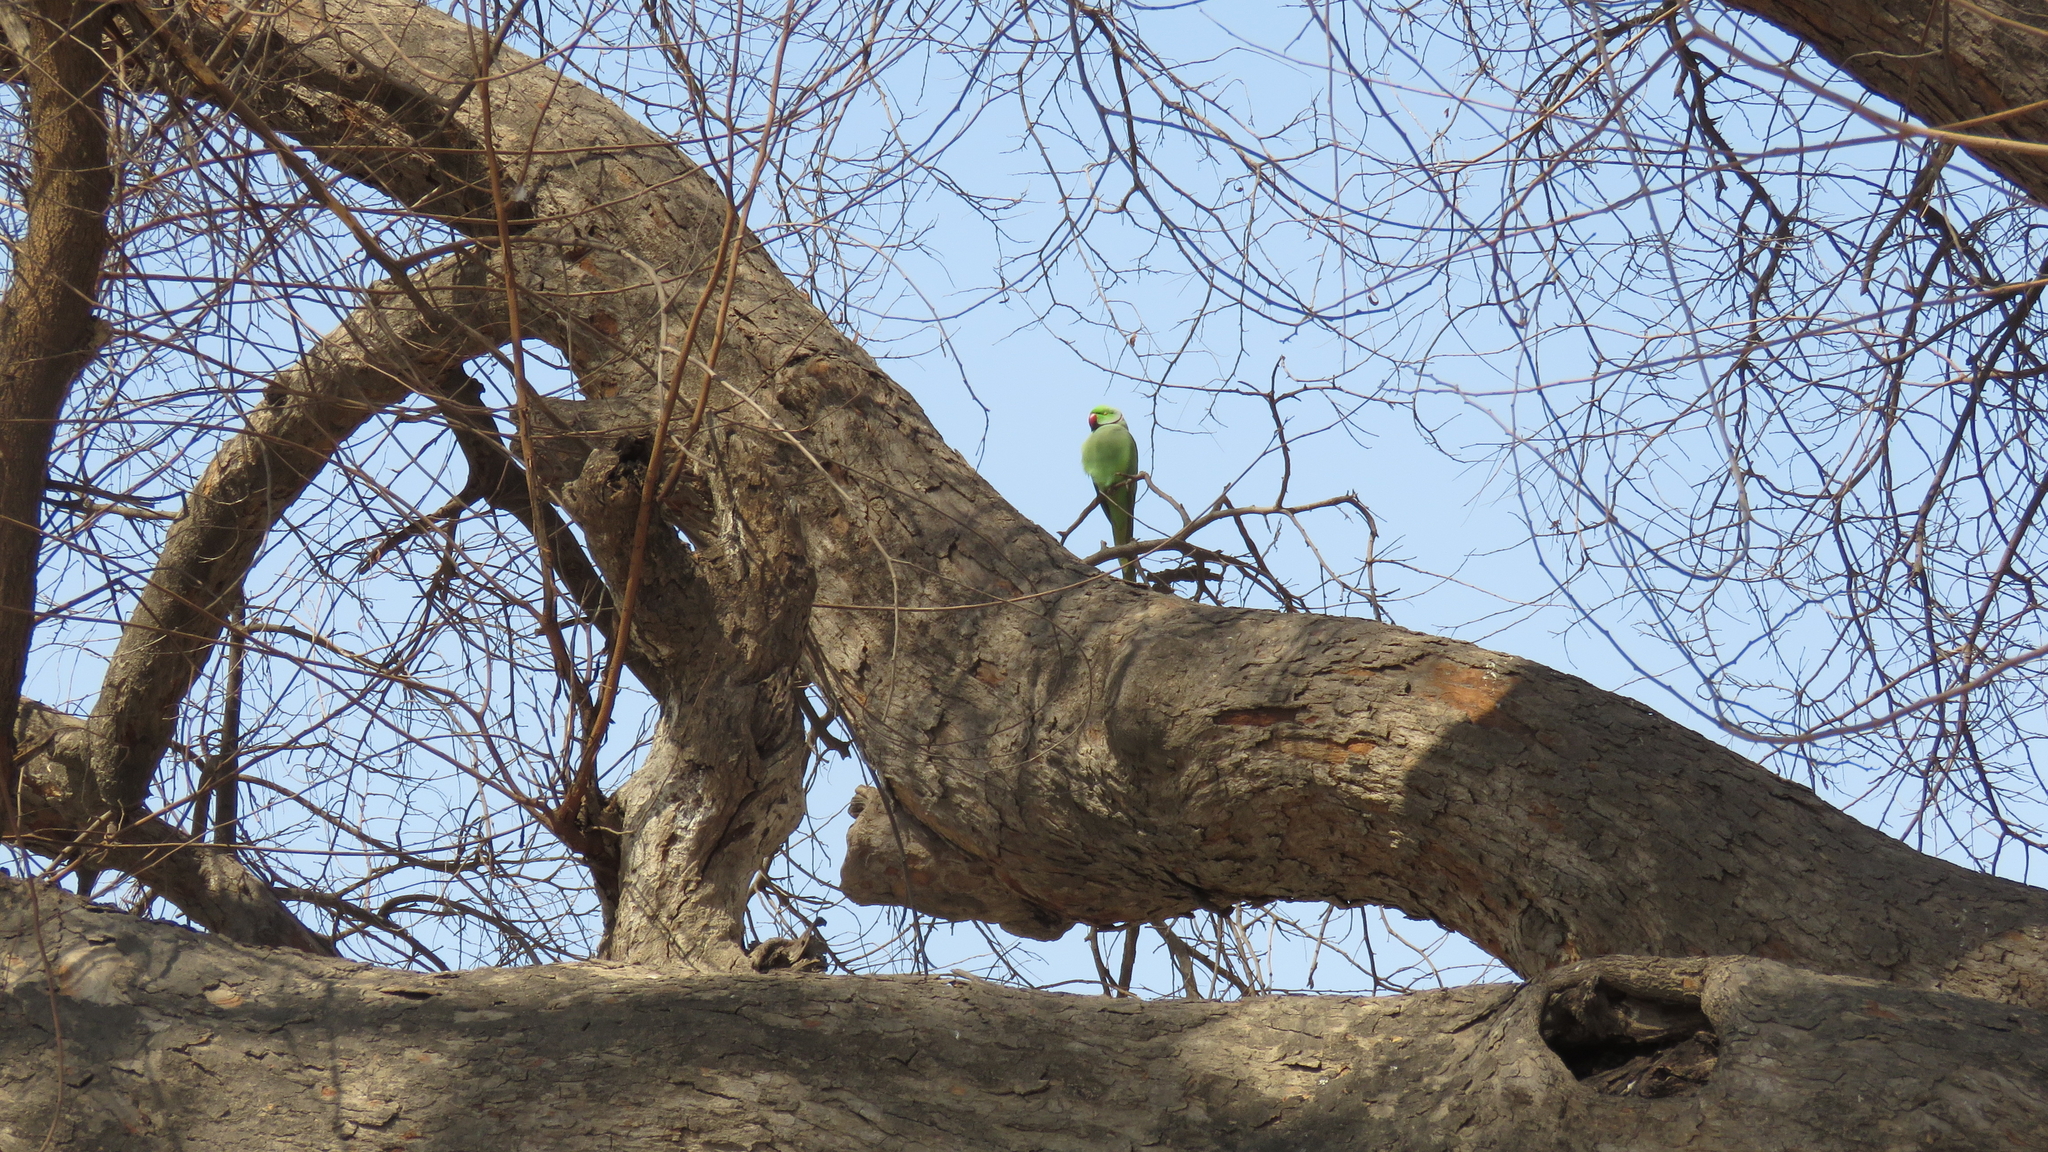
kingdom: Animalia
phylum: Chordata
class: Aves
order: Psittaciformes
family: Psittacidae
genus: Psittacula
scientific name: Psittacula krameri
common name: Rose-ringed parakeet
